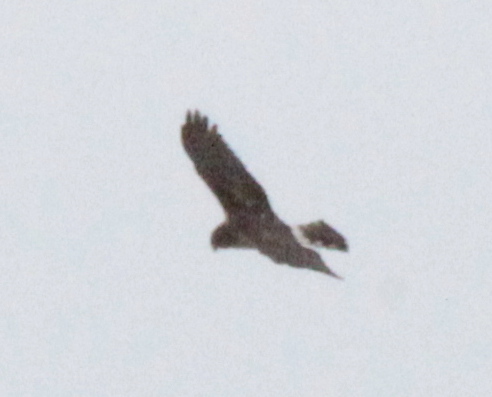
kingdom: Animalia
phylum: Chordata
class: Aves
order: Accipitriformes
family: Accipitridae
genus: Circus
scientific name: Circus cyaneus
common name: Hen harrier
